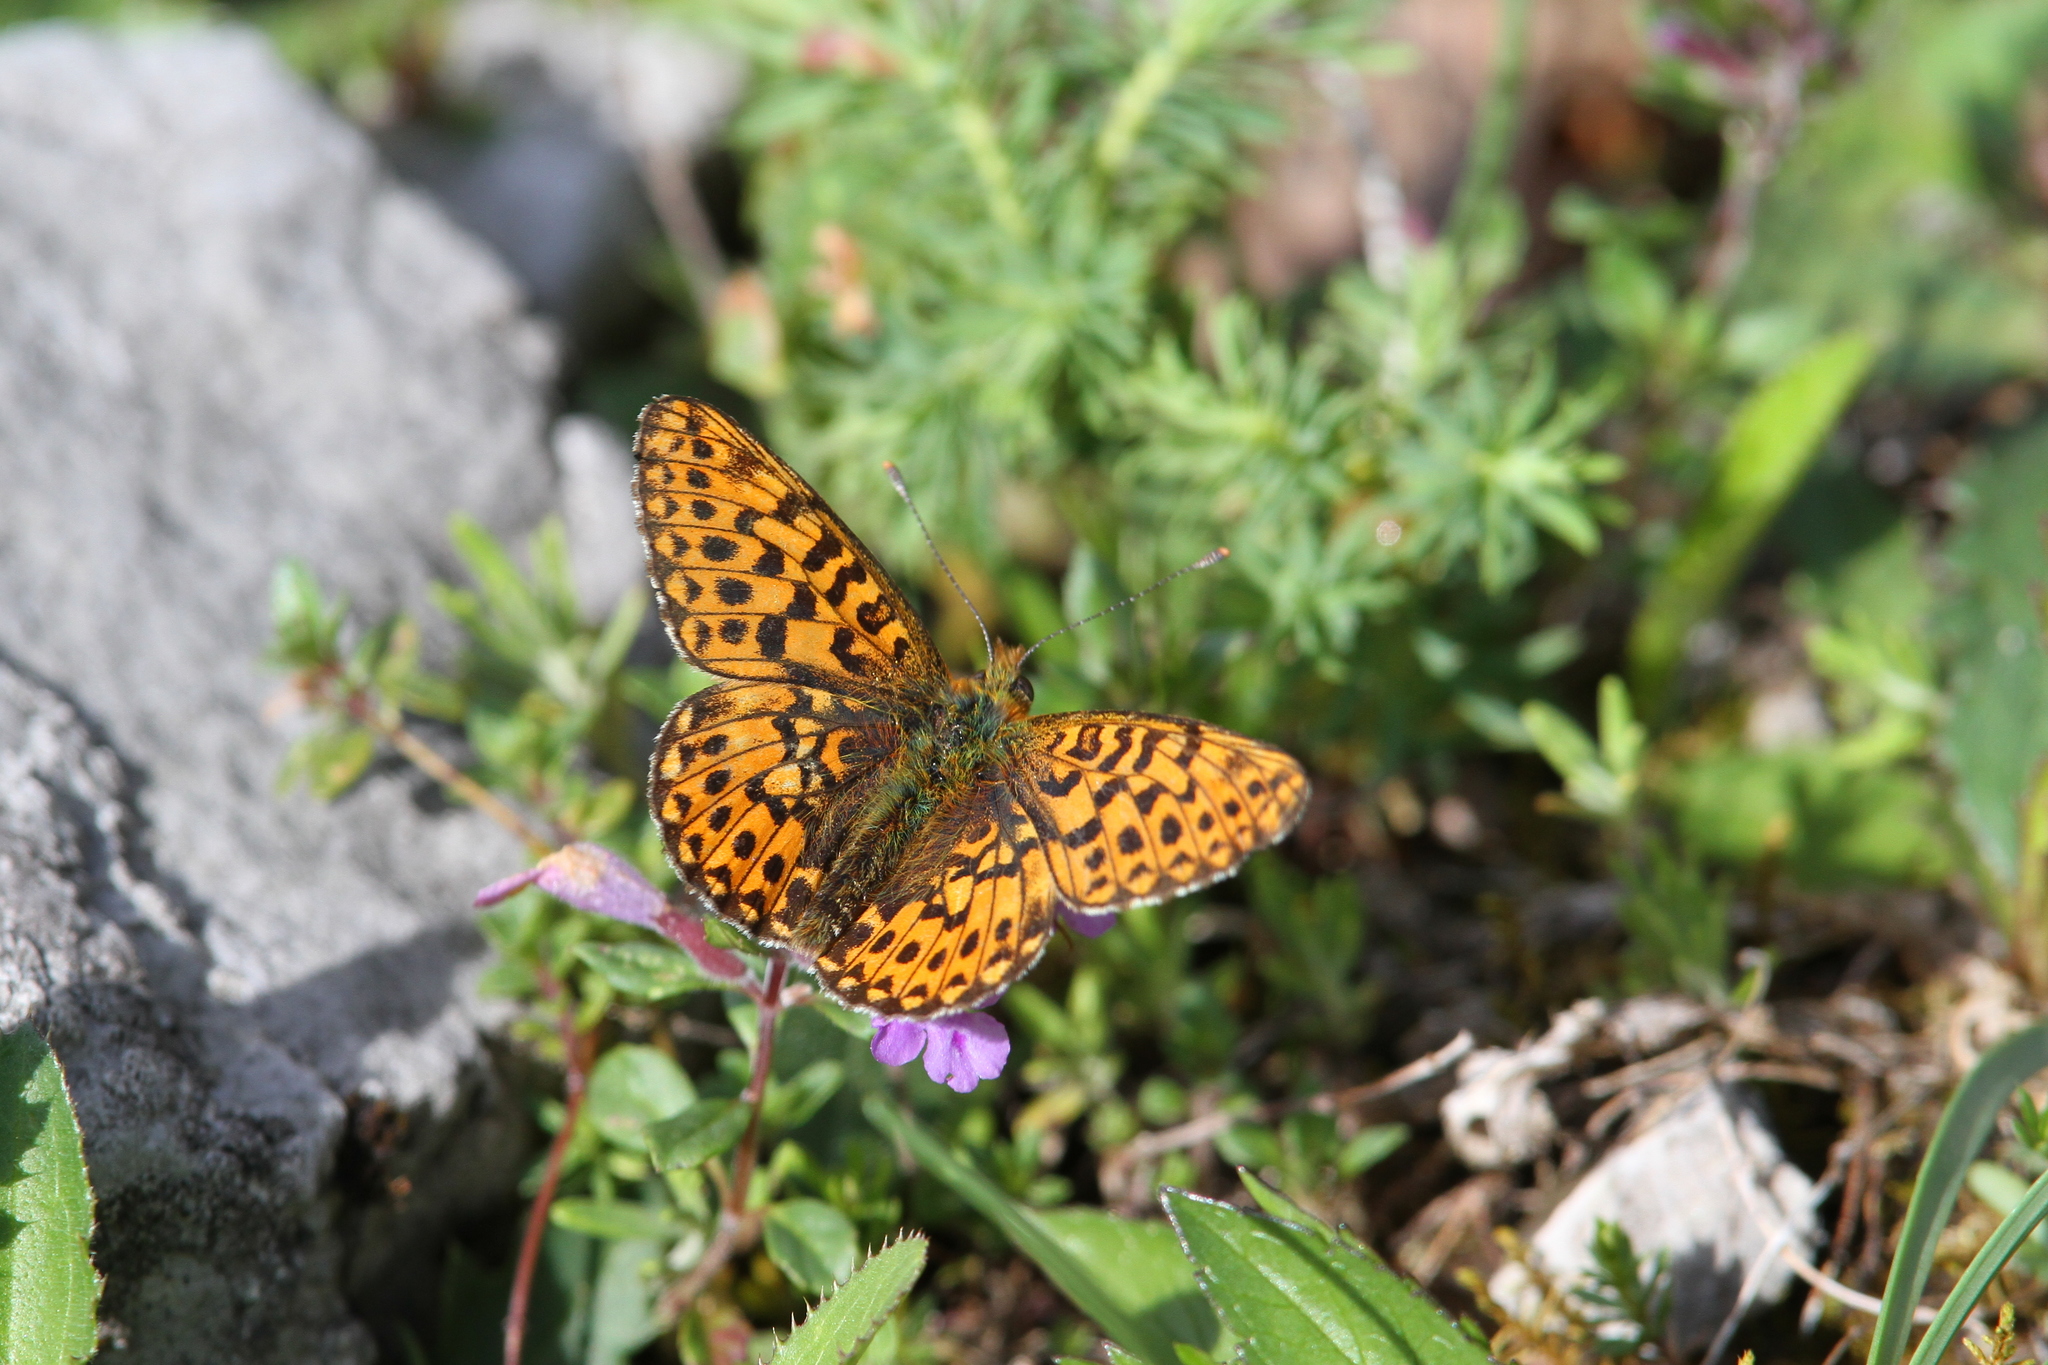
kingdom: Animalia
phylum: Arthropoda
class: Insecta
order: Lepidoptera
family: Nymphalidae
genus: Clossiana
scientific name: Clossiana euphrosyne
